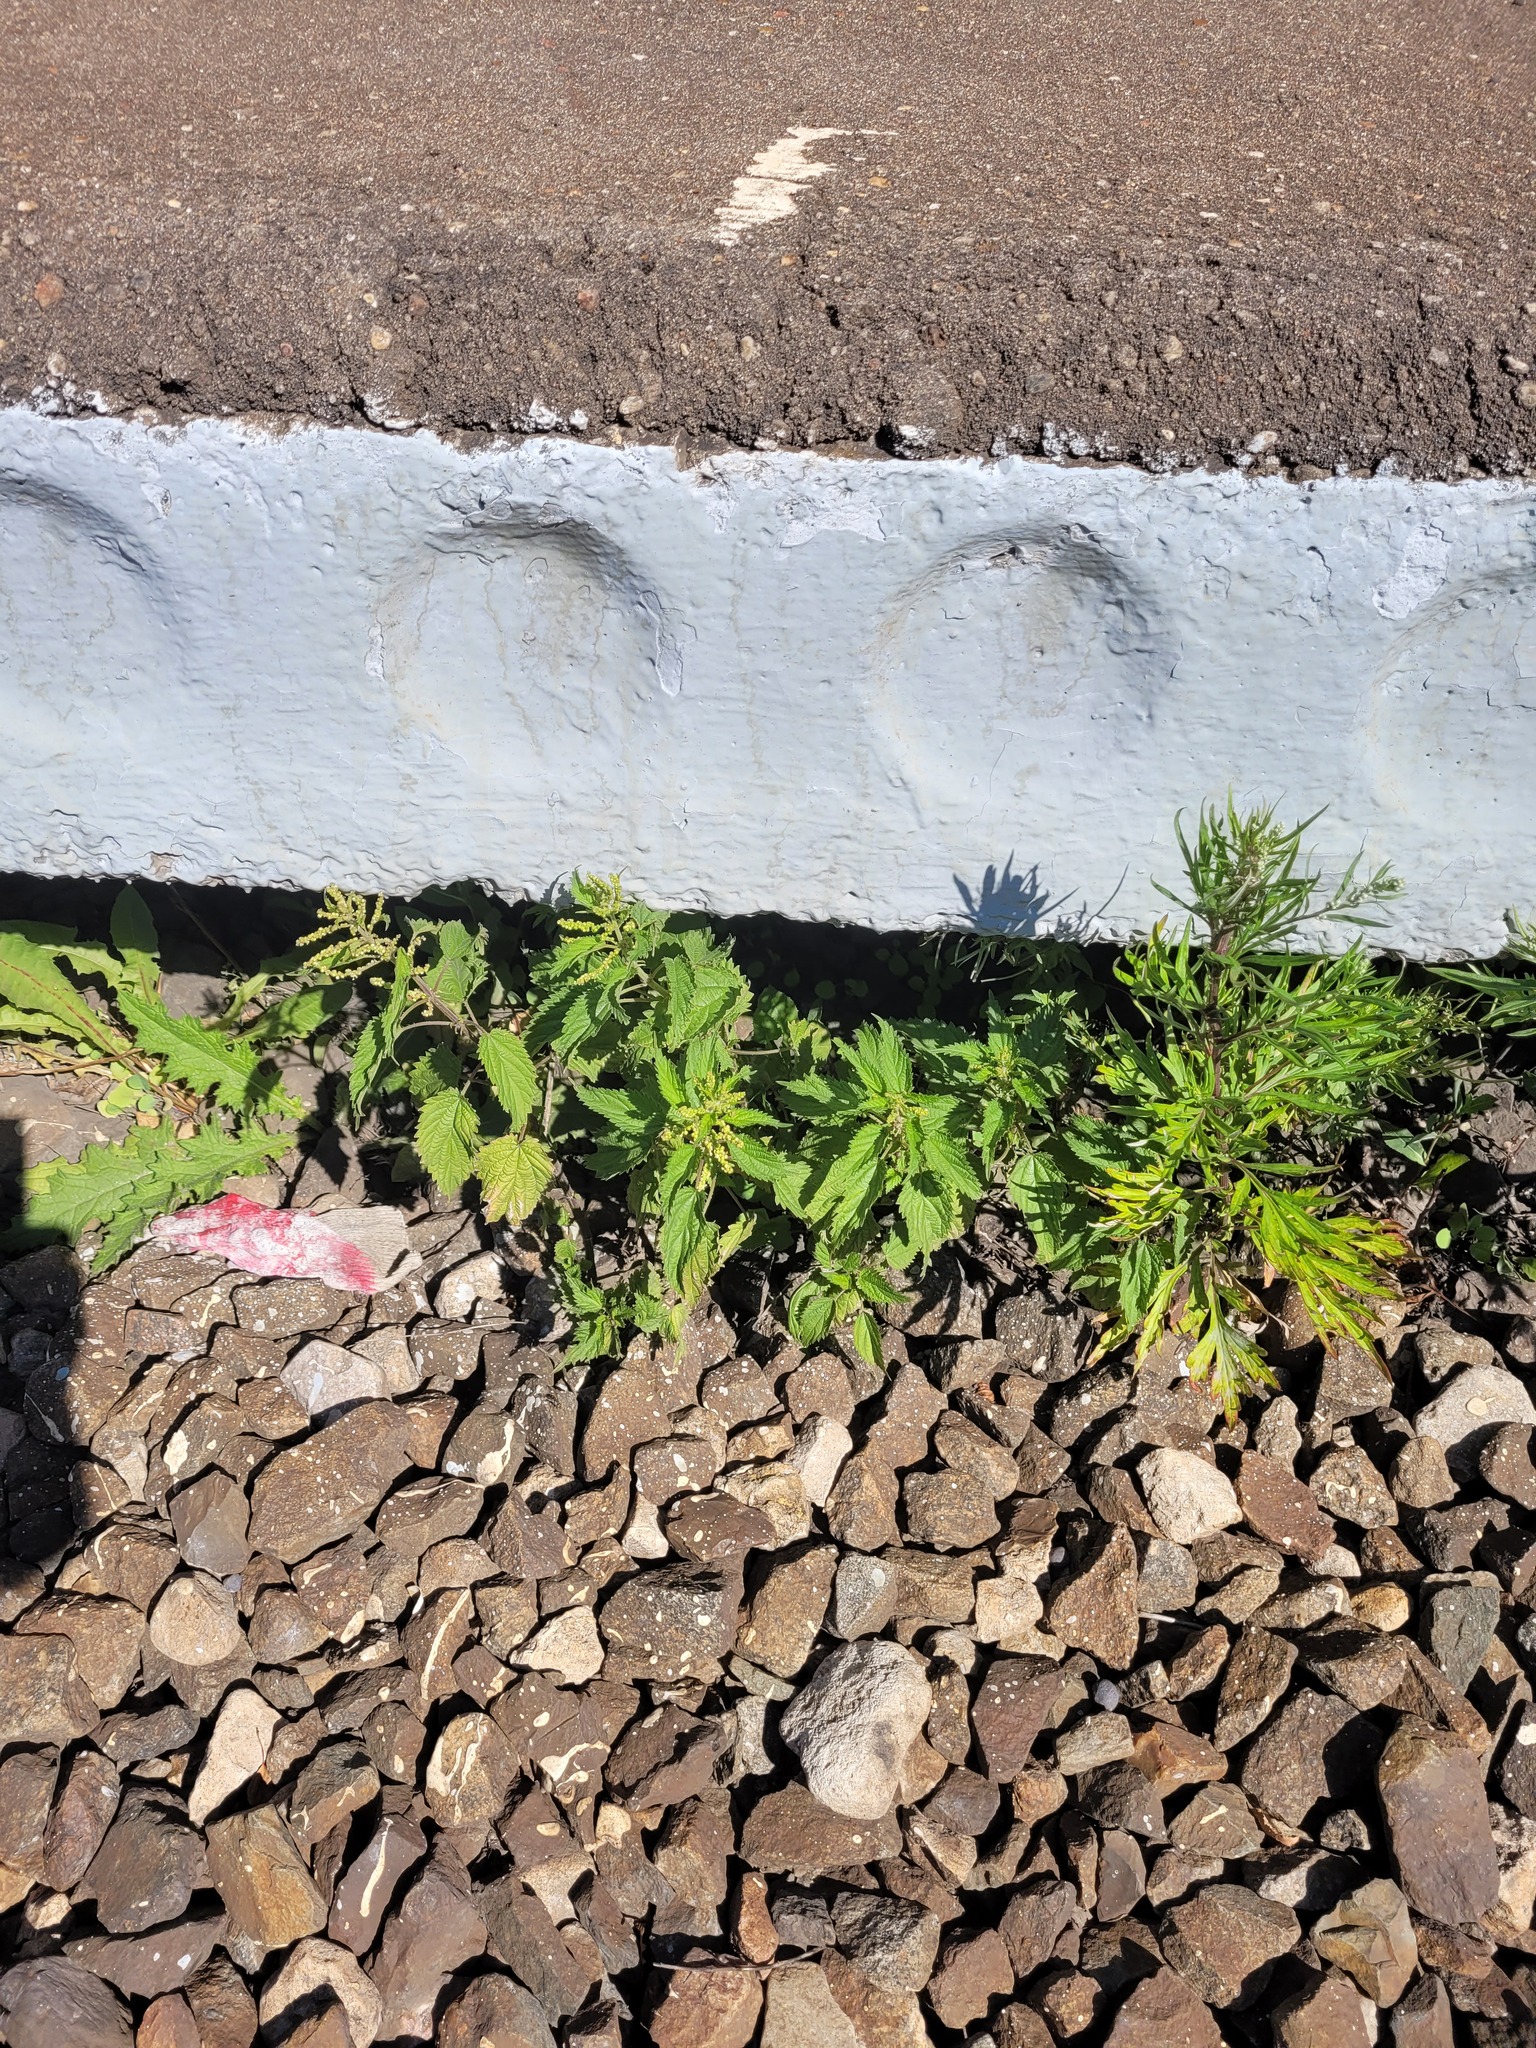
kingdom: Plantae
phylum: Tracheophyta
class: Magnoliopsida
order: Rosales
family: Urticaceae
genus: Urtica
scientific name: Urtica dioica
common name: Common nettle
